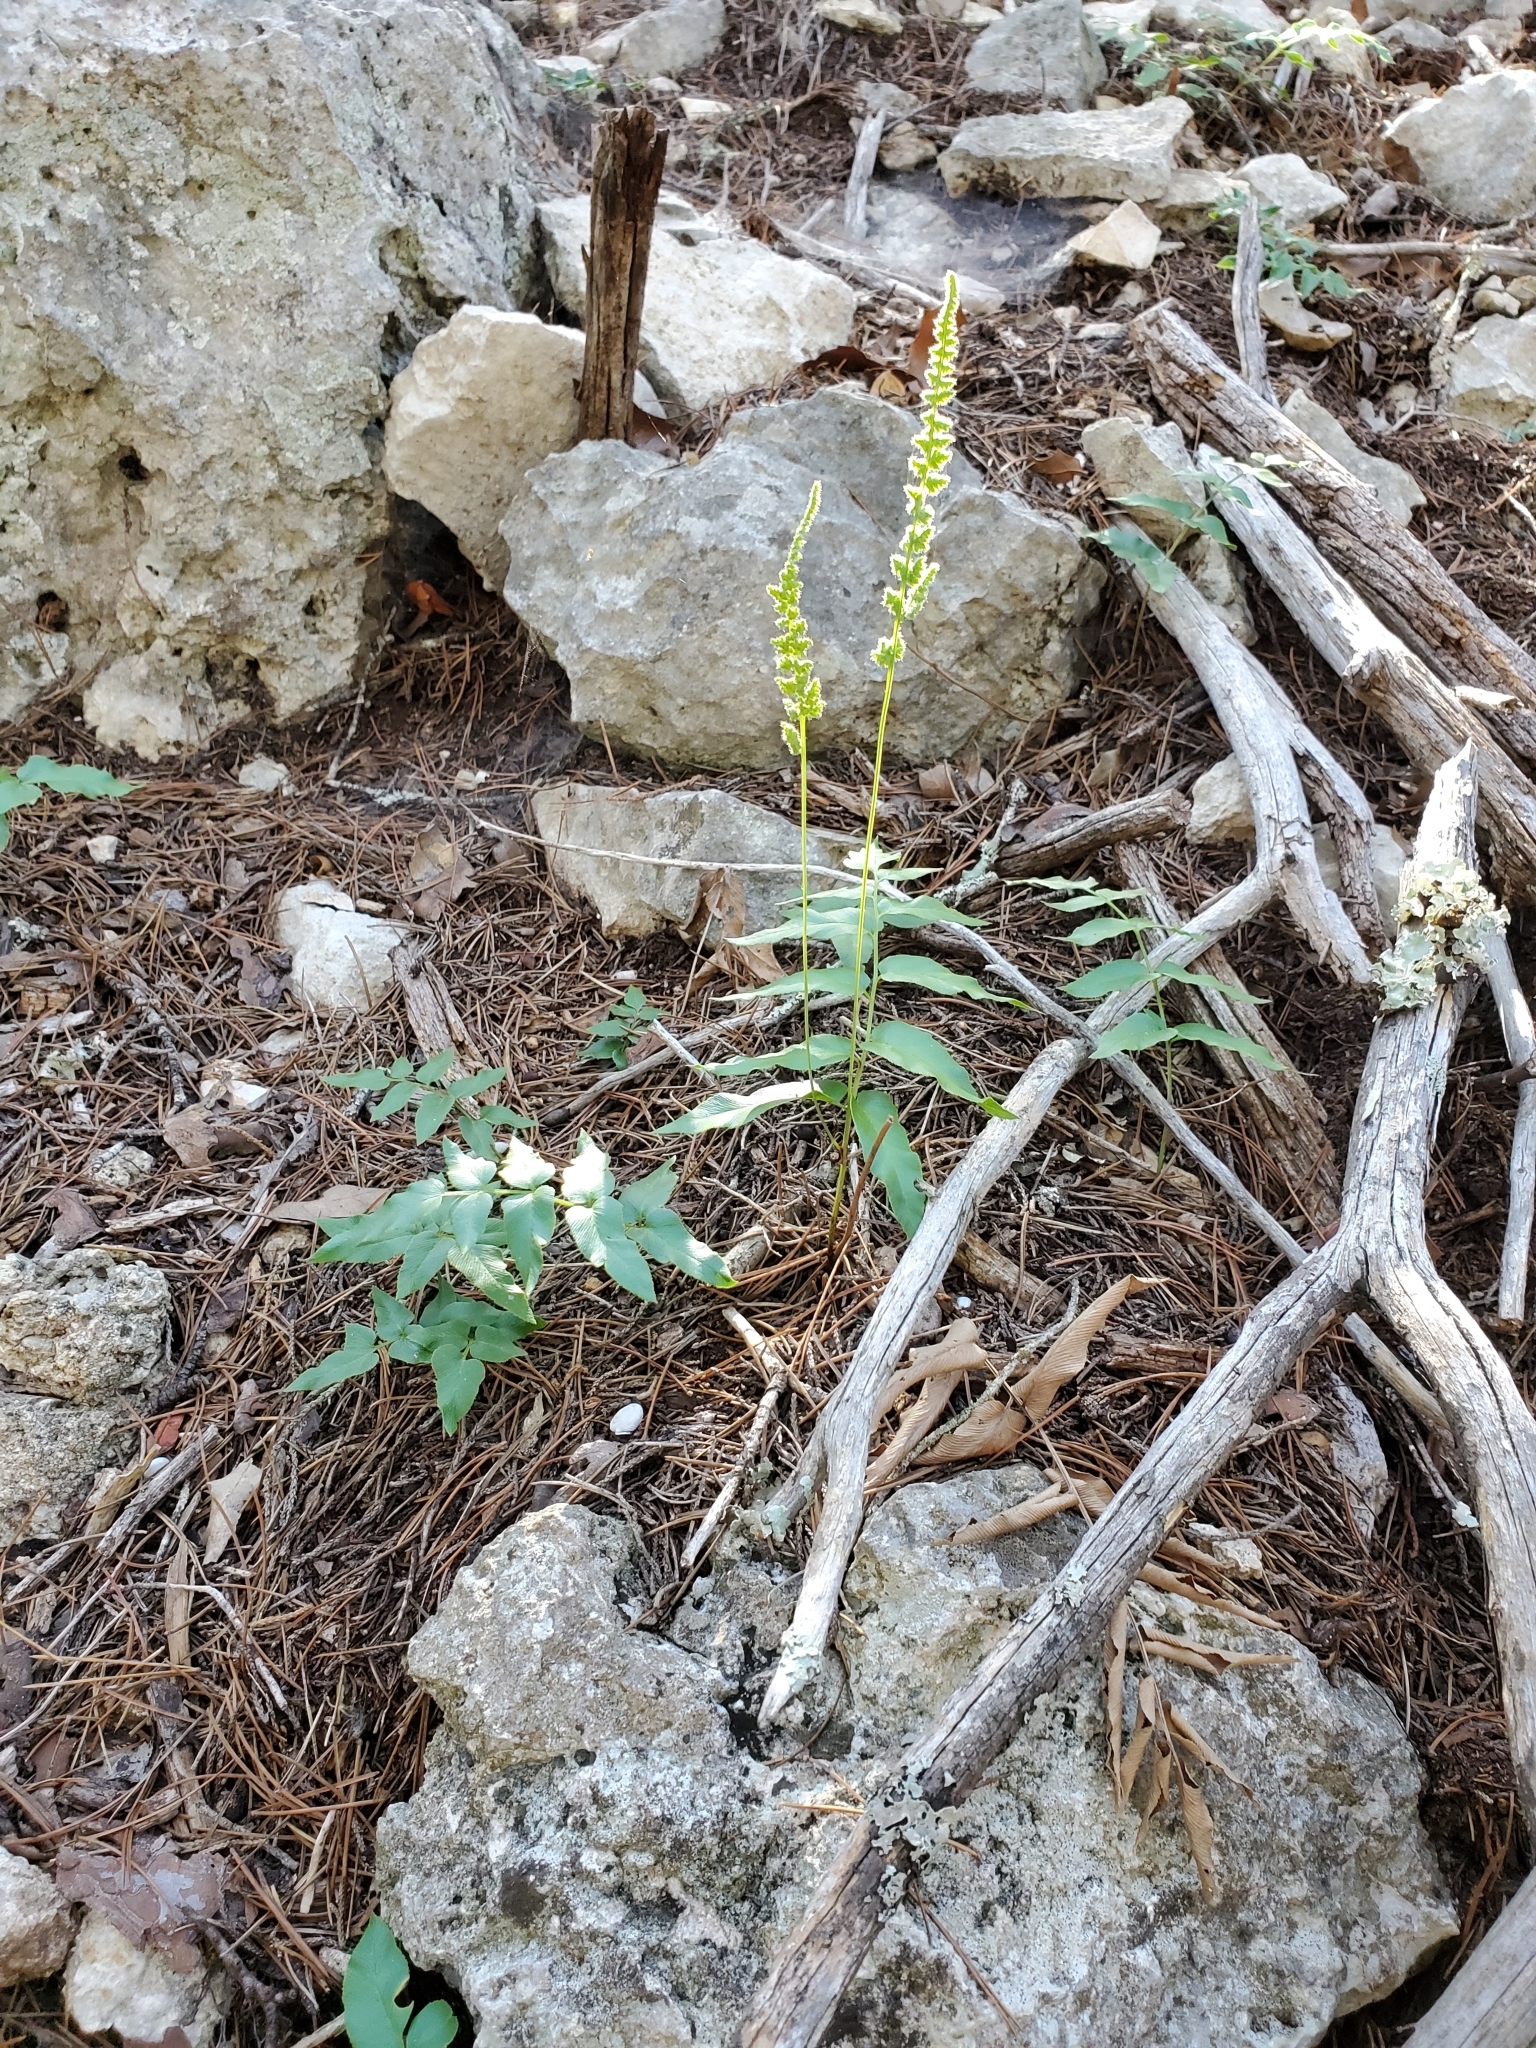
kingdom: Plantae
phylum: Tracheophyta
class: Polypodiopsida
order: Schizaeales
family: Anemiaceae
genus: Anemia
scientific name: Anemia mexicana
